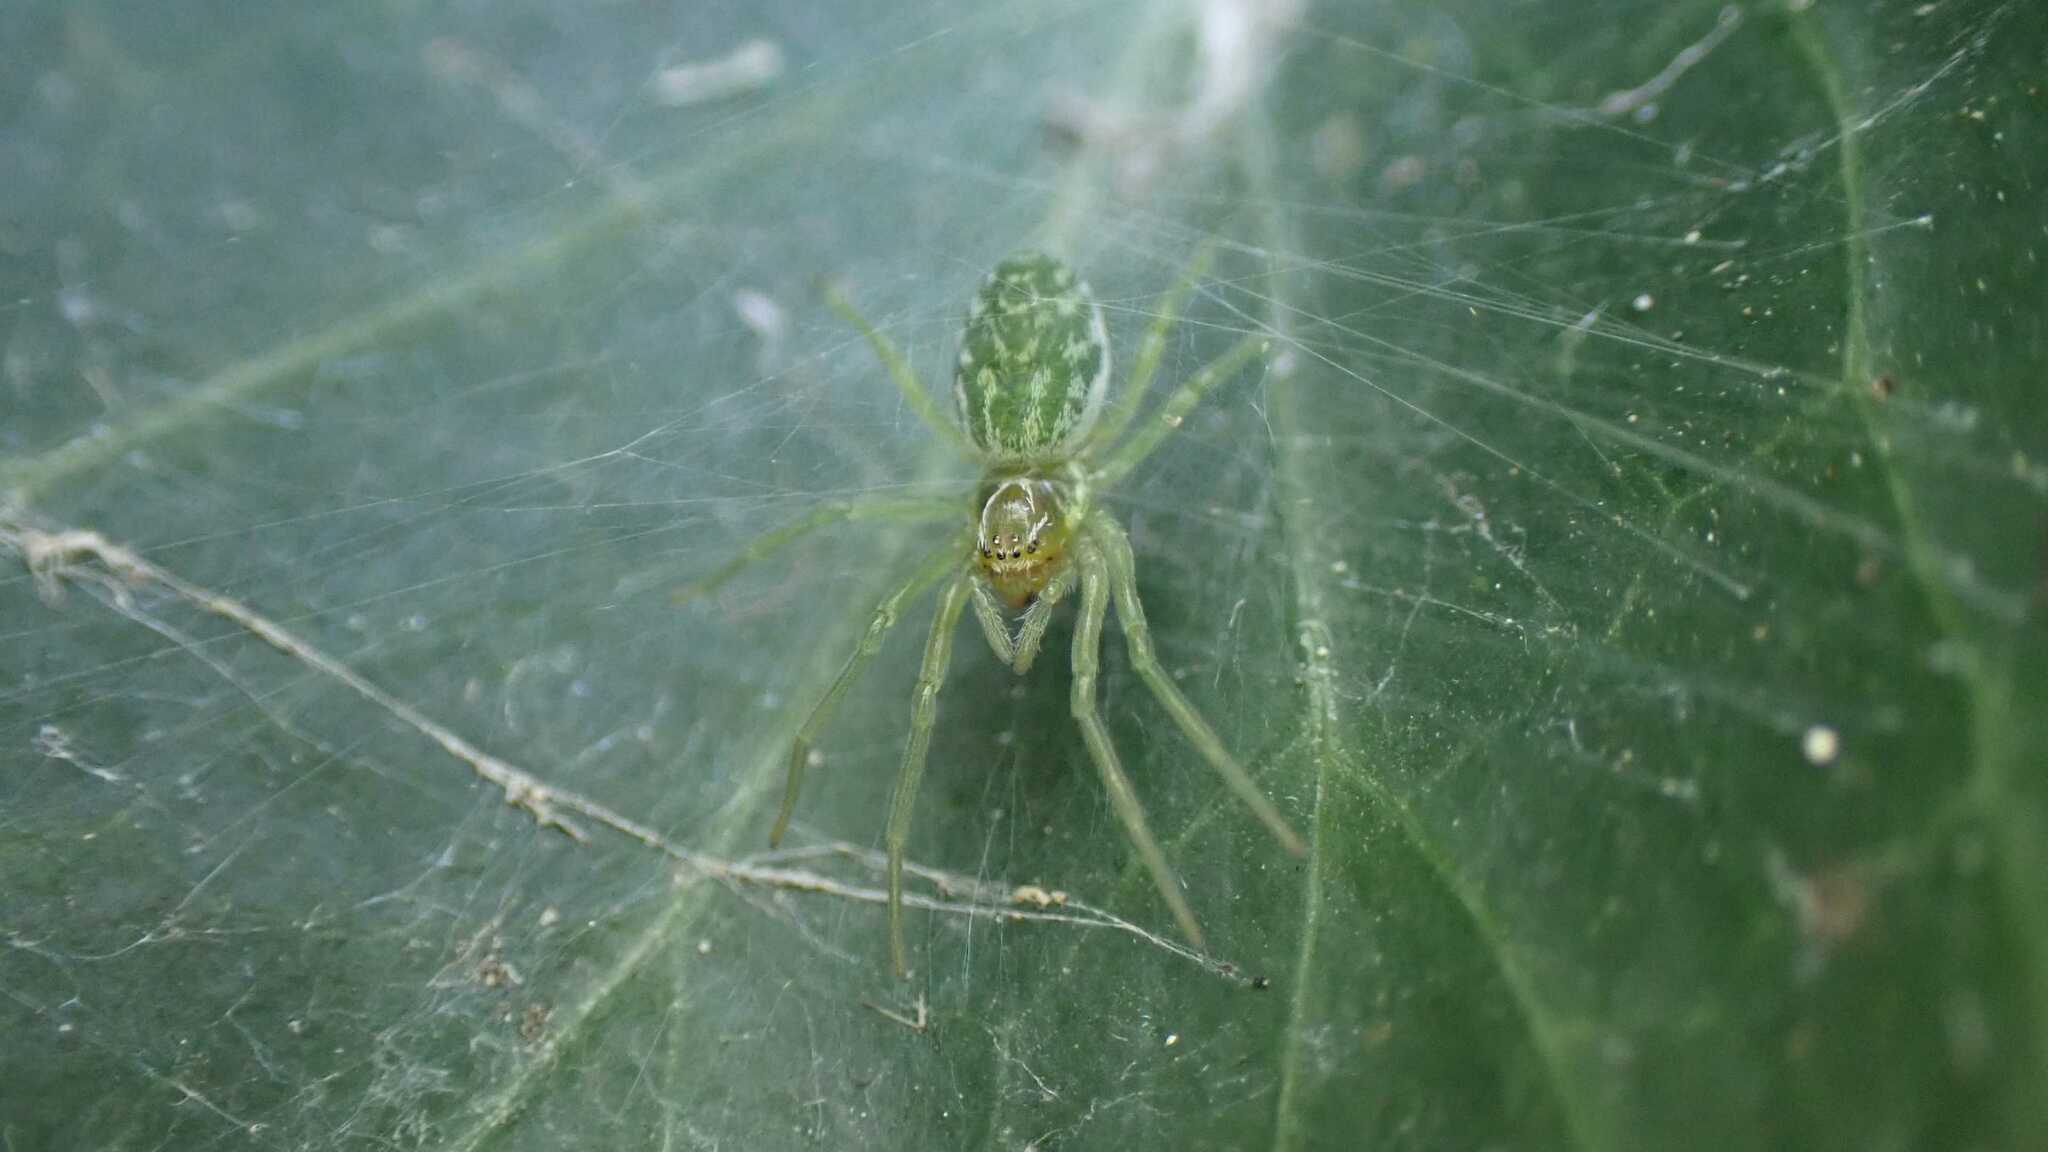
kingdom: Animalia
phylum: Arthropoda
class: Arachnida
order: Araneae
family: Dictynidae
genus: Nigma
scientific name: Nigma walckenaeri
